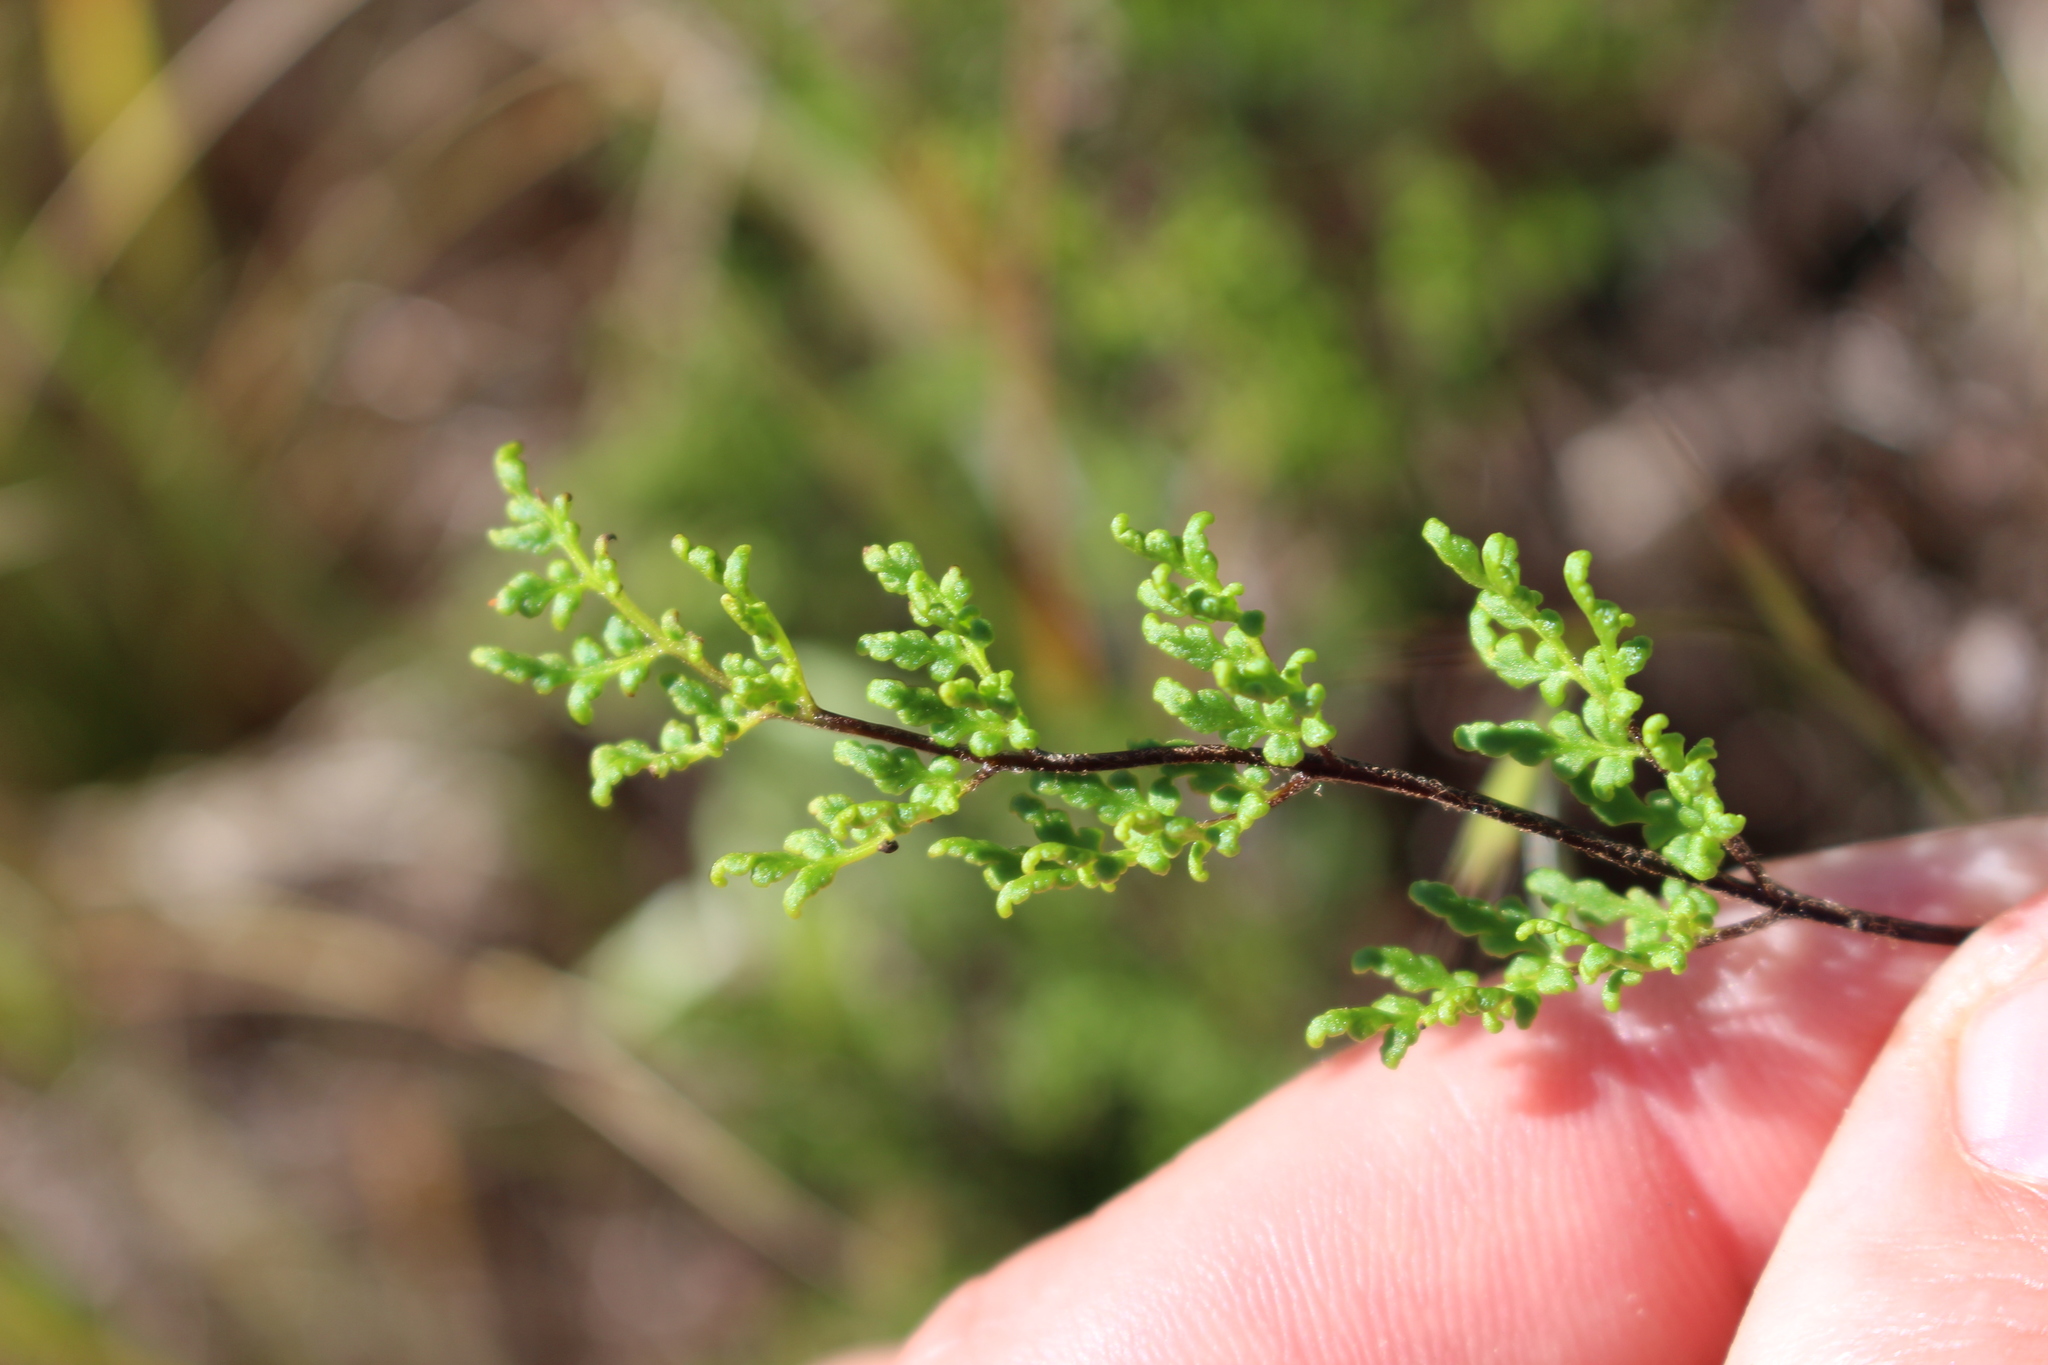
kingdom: Plantae
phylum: Tracheophyta
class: Polypodiopsida
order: Polypodiales
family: Pteridaceae
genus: Cheilanthes
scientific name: Cheilanthes sieberi
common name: Mulga fern
